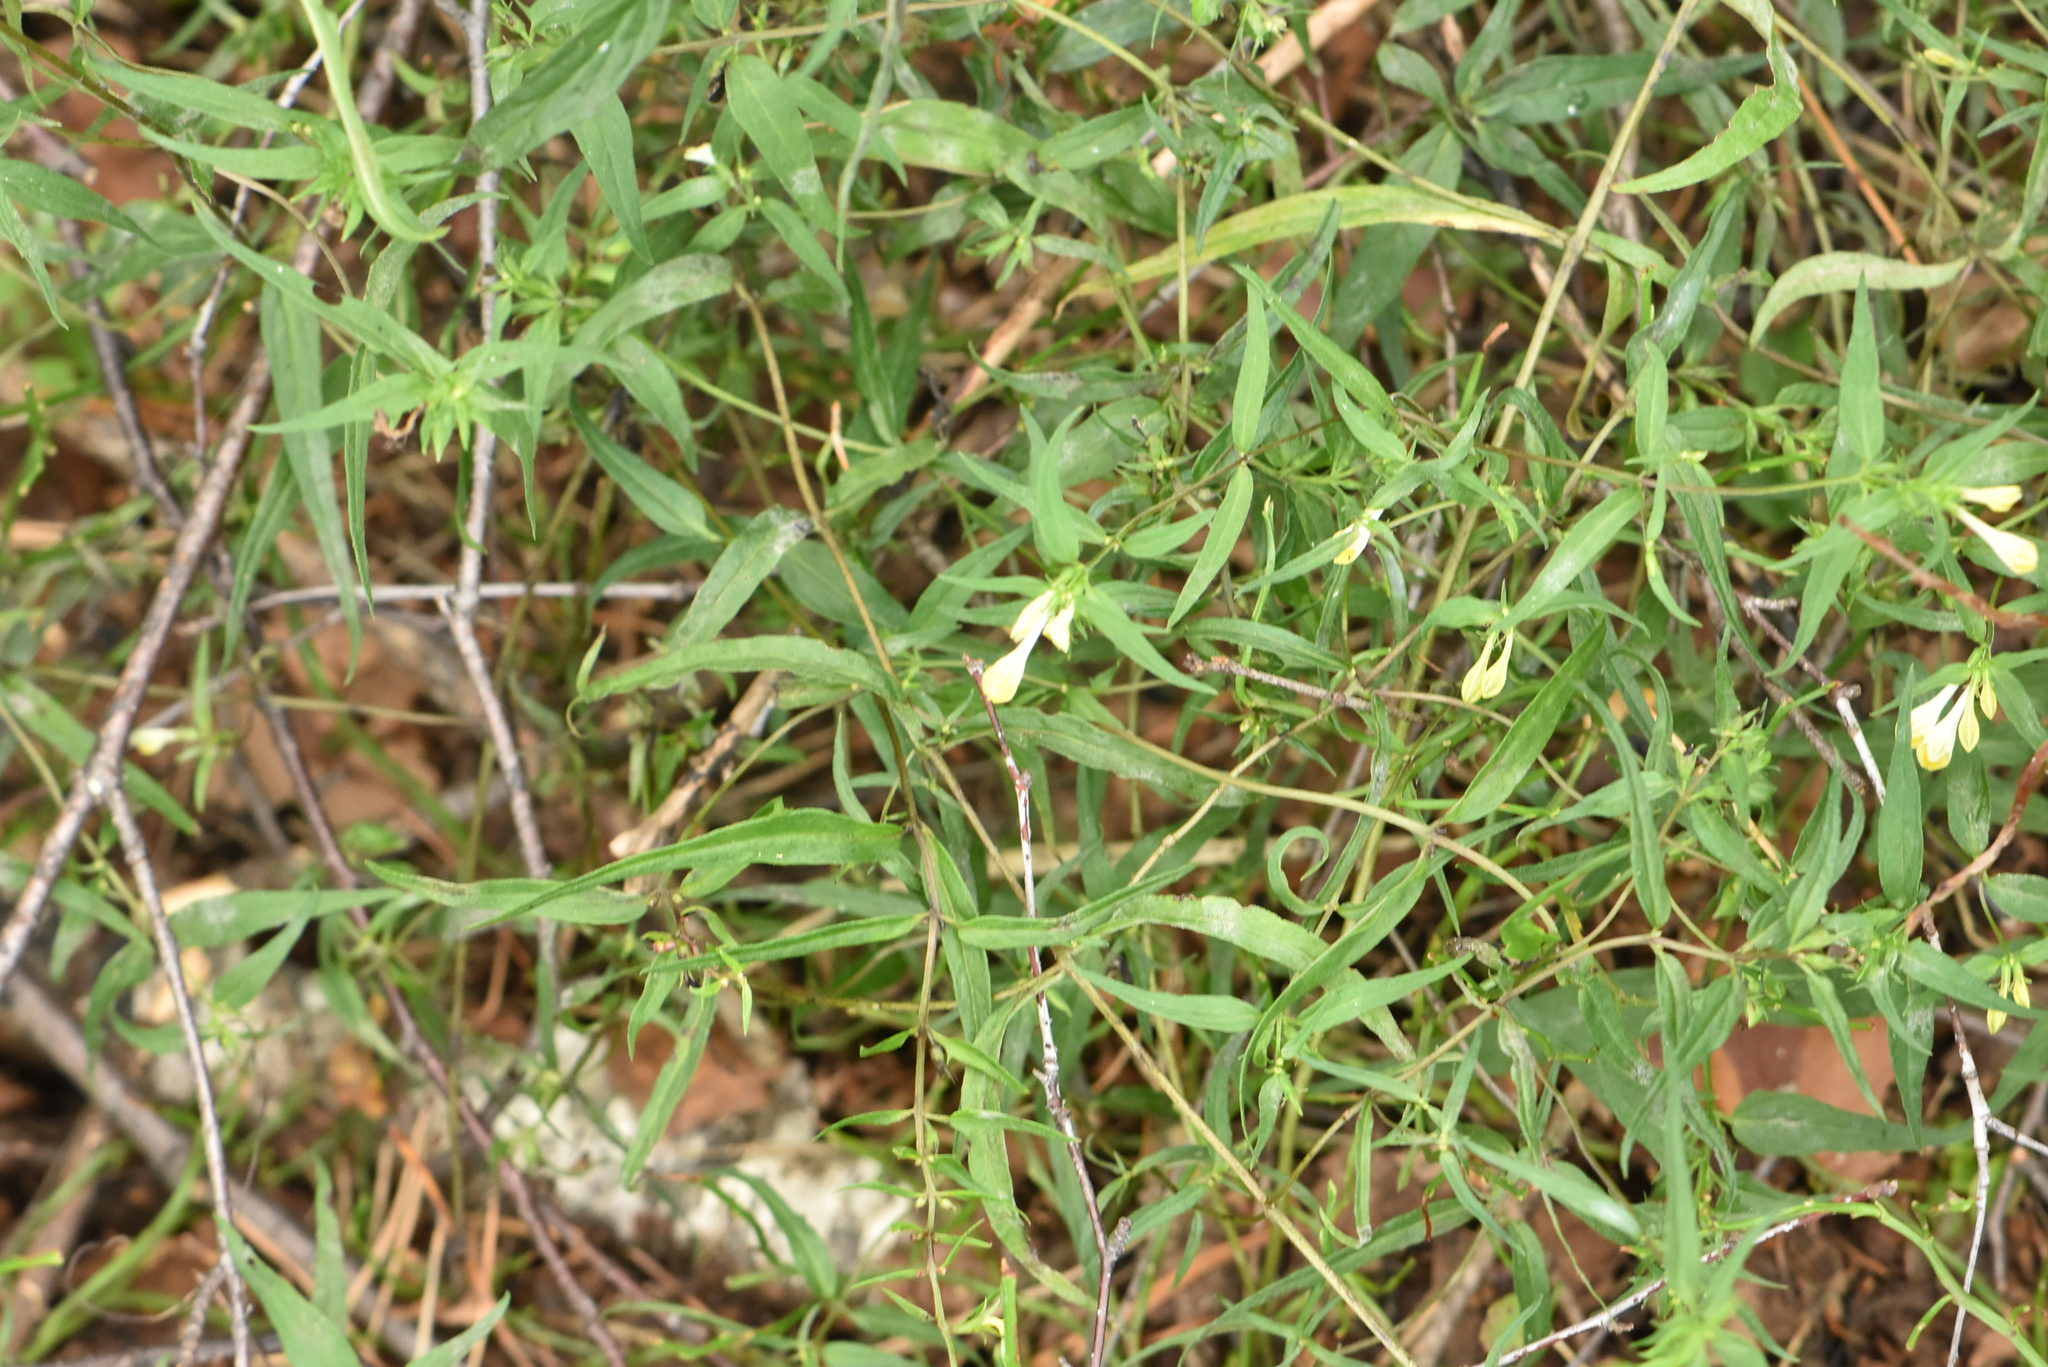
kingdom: Plantae
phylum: Tracheophyta
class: Magnoliopsida
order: Lamiales
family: Orobanchaceae
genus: Melampyrum
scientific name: Melampyrum pratense
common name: Common cow-wheat
